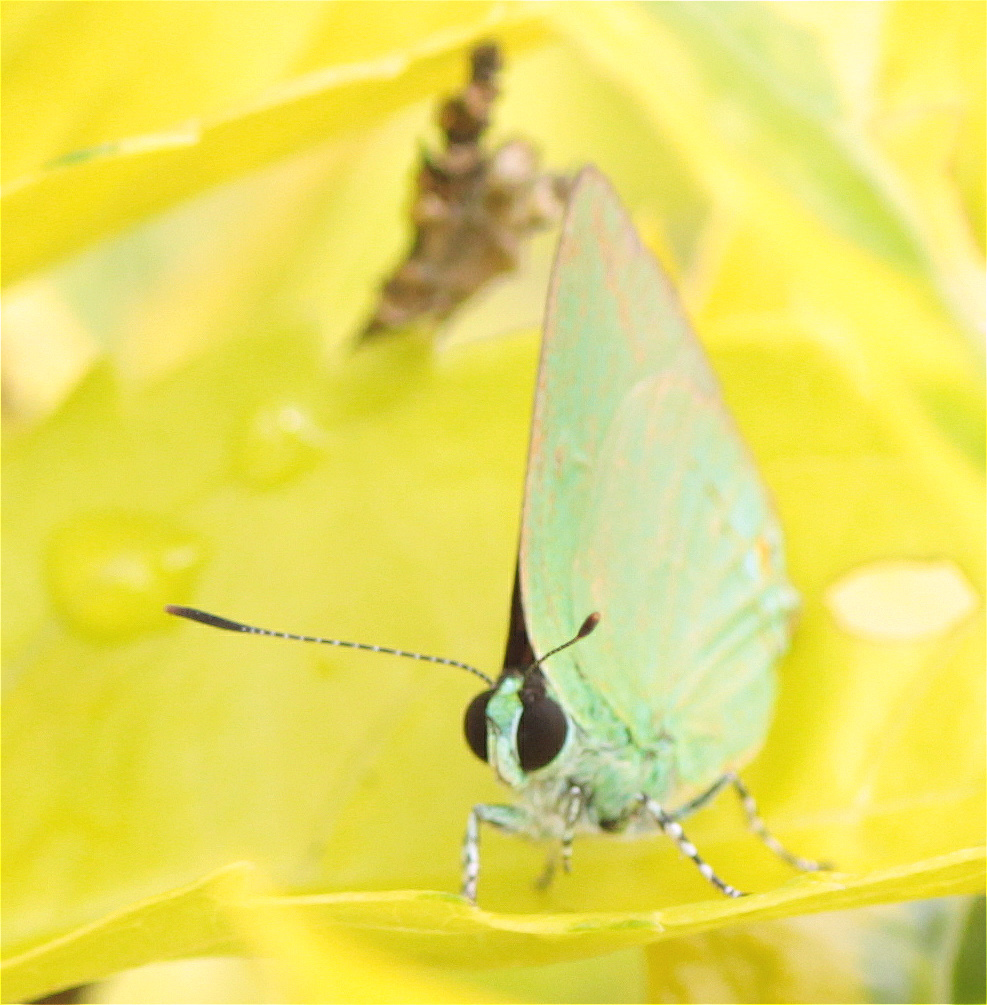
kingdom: Animalia
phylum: Arthropoda
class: Insecta
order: Lepidoptera
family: Lycaenidae
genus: Chalybs
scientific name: Chalybs janias
